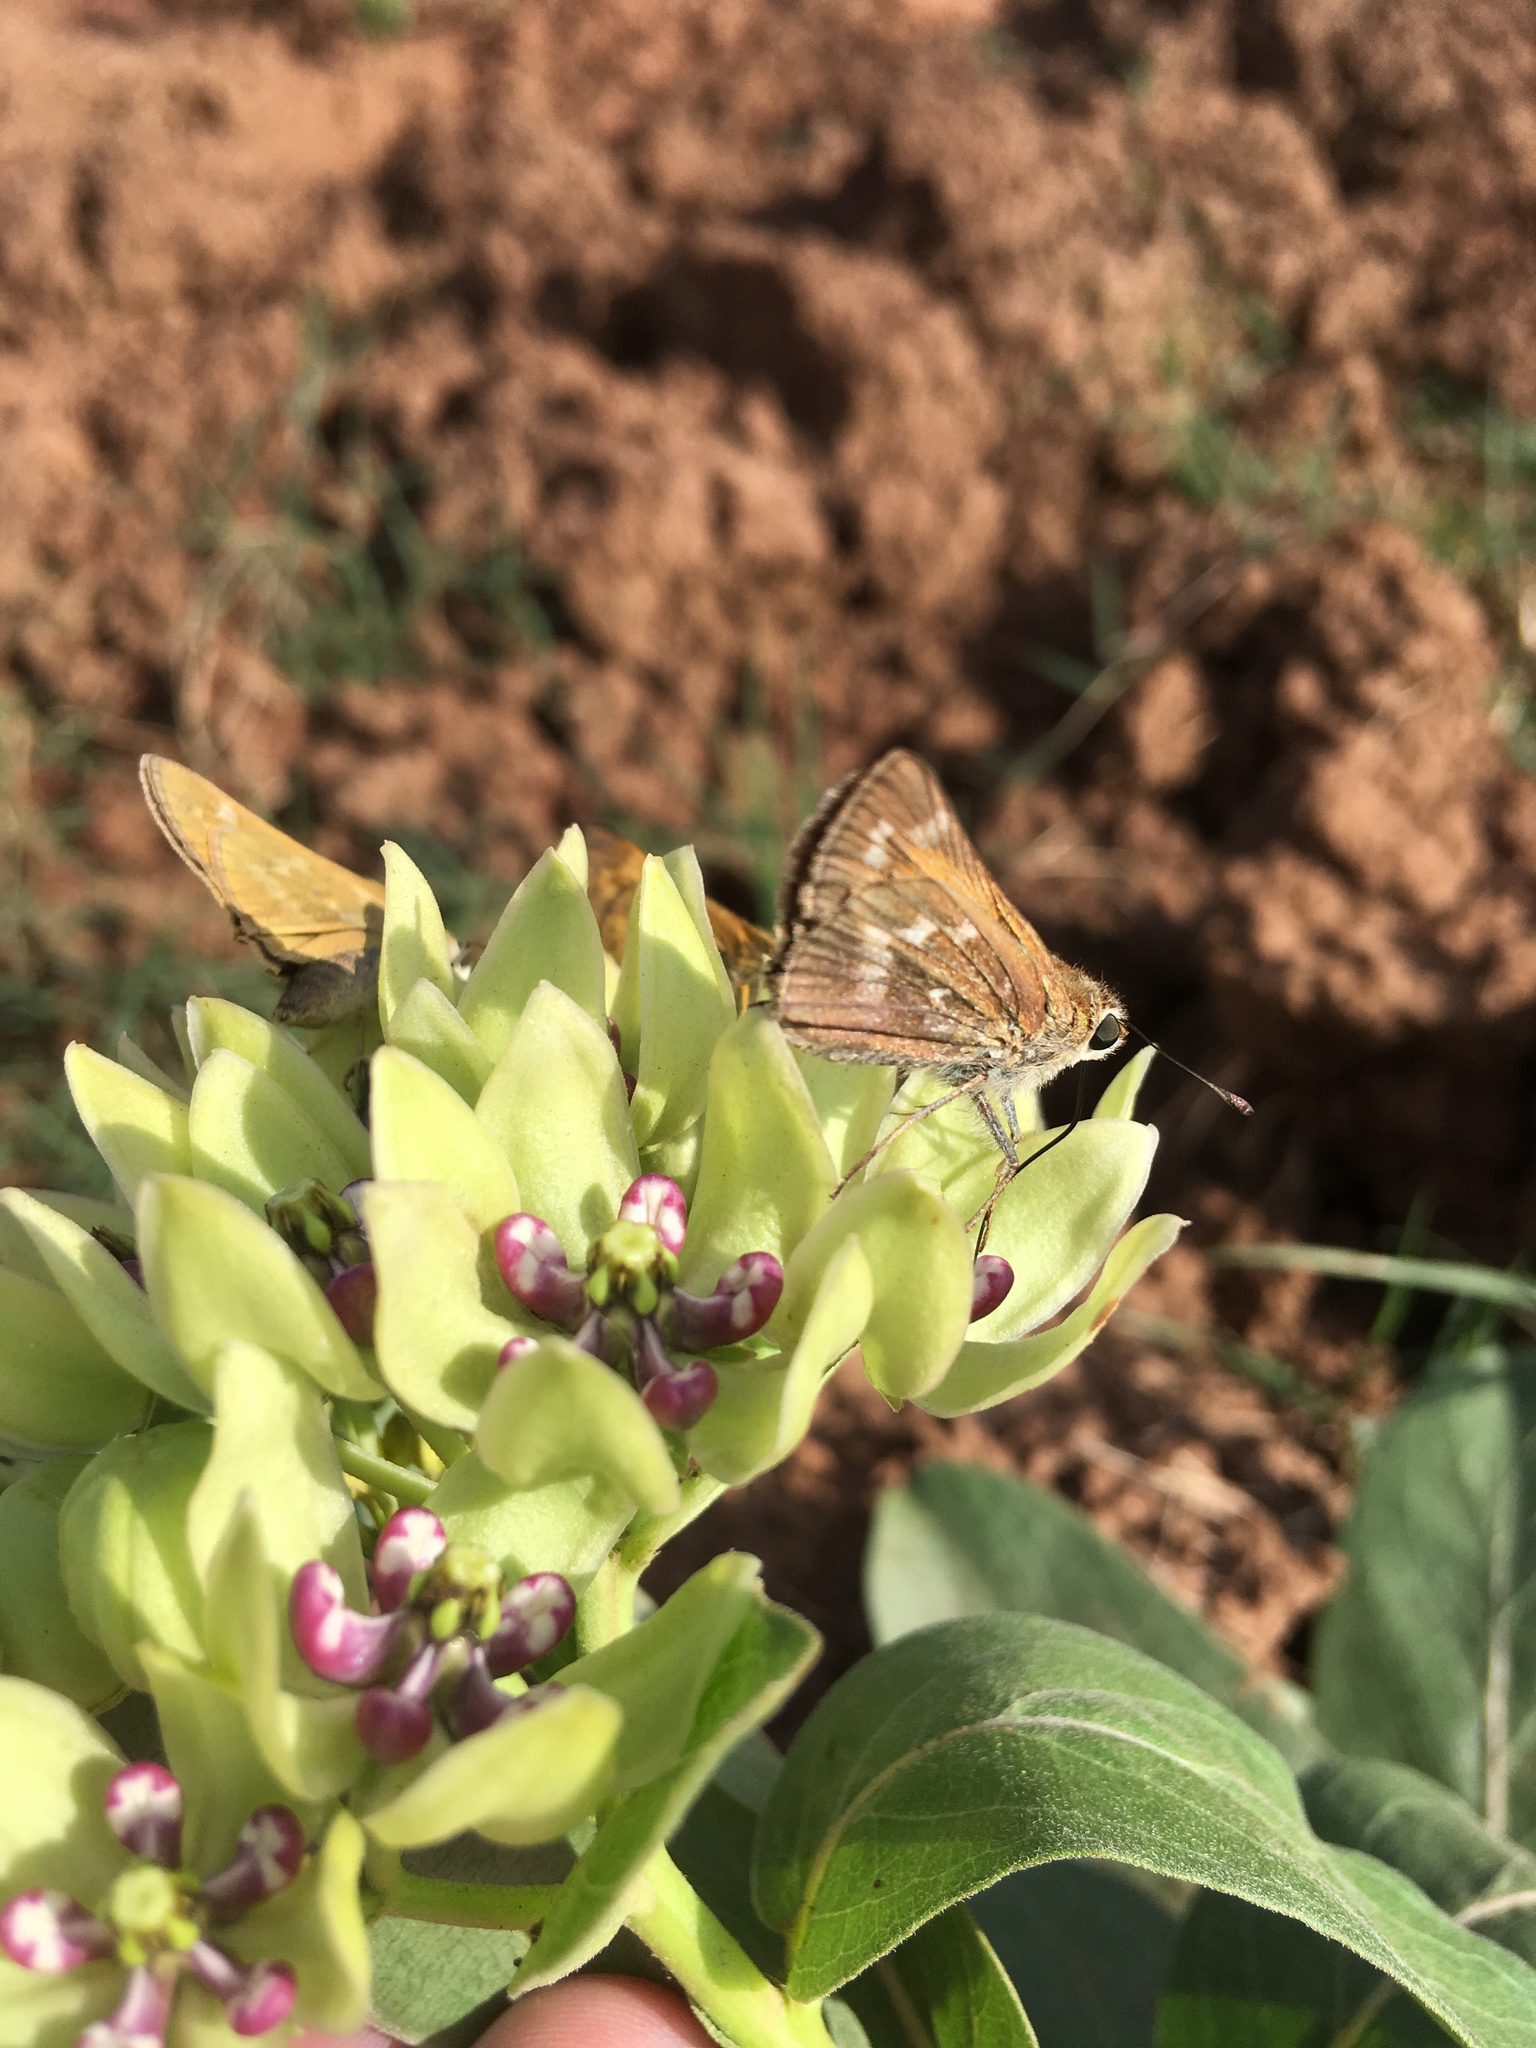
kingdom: Animalia
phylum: Arthropoda
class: Insecta
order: Lepidoptera
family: Hesperiidae
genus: Atalopedes
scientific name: Atalopedes
